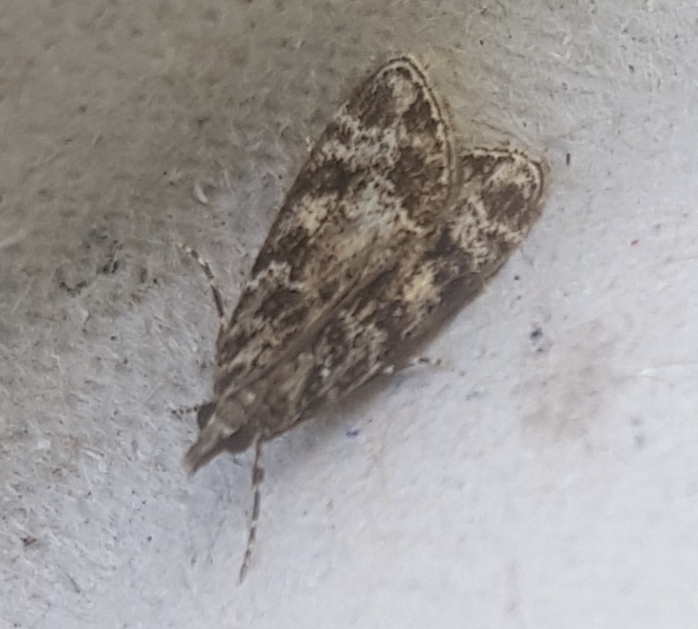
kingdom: Animalia
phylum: Arthropoda
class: Insecta
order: Lepidoptera
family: Crambidae
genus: Eudonia
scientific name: Eudonia mercurella
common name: Small grey
